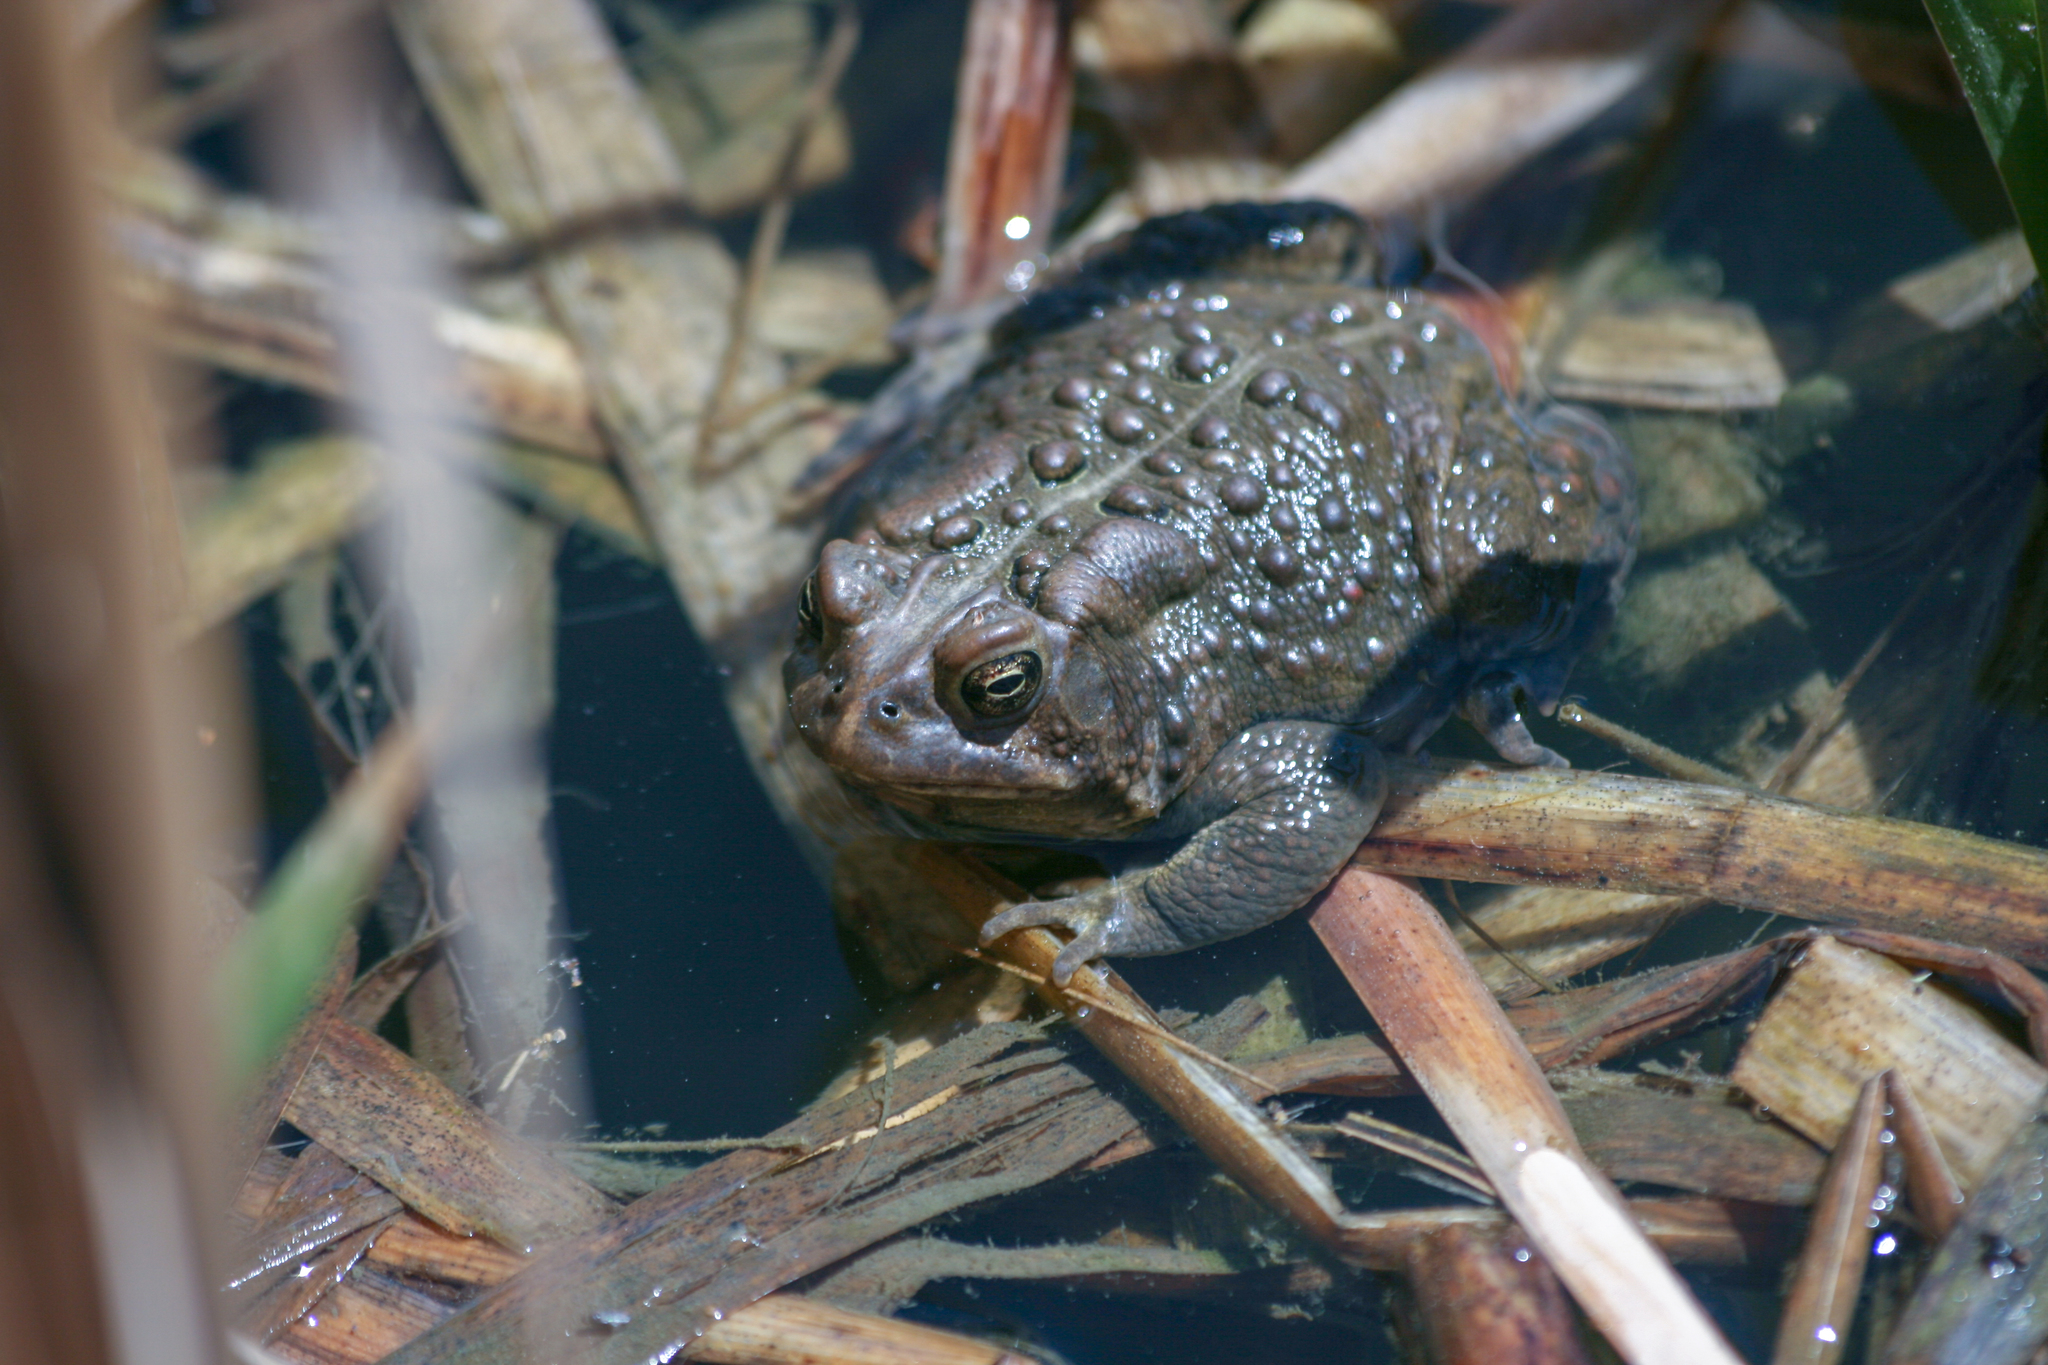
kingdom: Animalia
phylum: Chordata
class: Amphibia
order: Anura
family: Bufonidae
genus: Anaxyrus
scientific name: Anaxyrus americanus
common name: American toad
